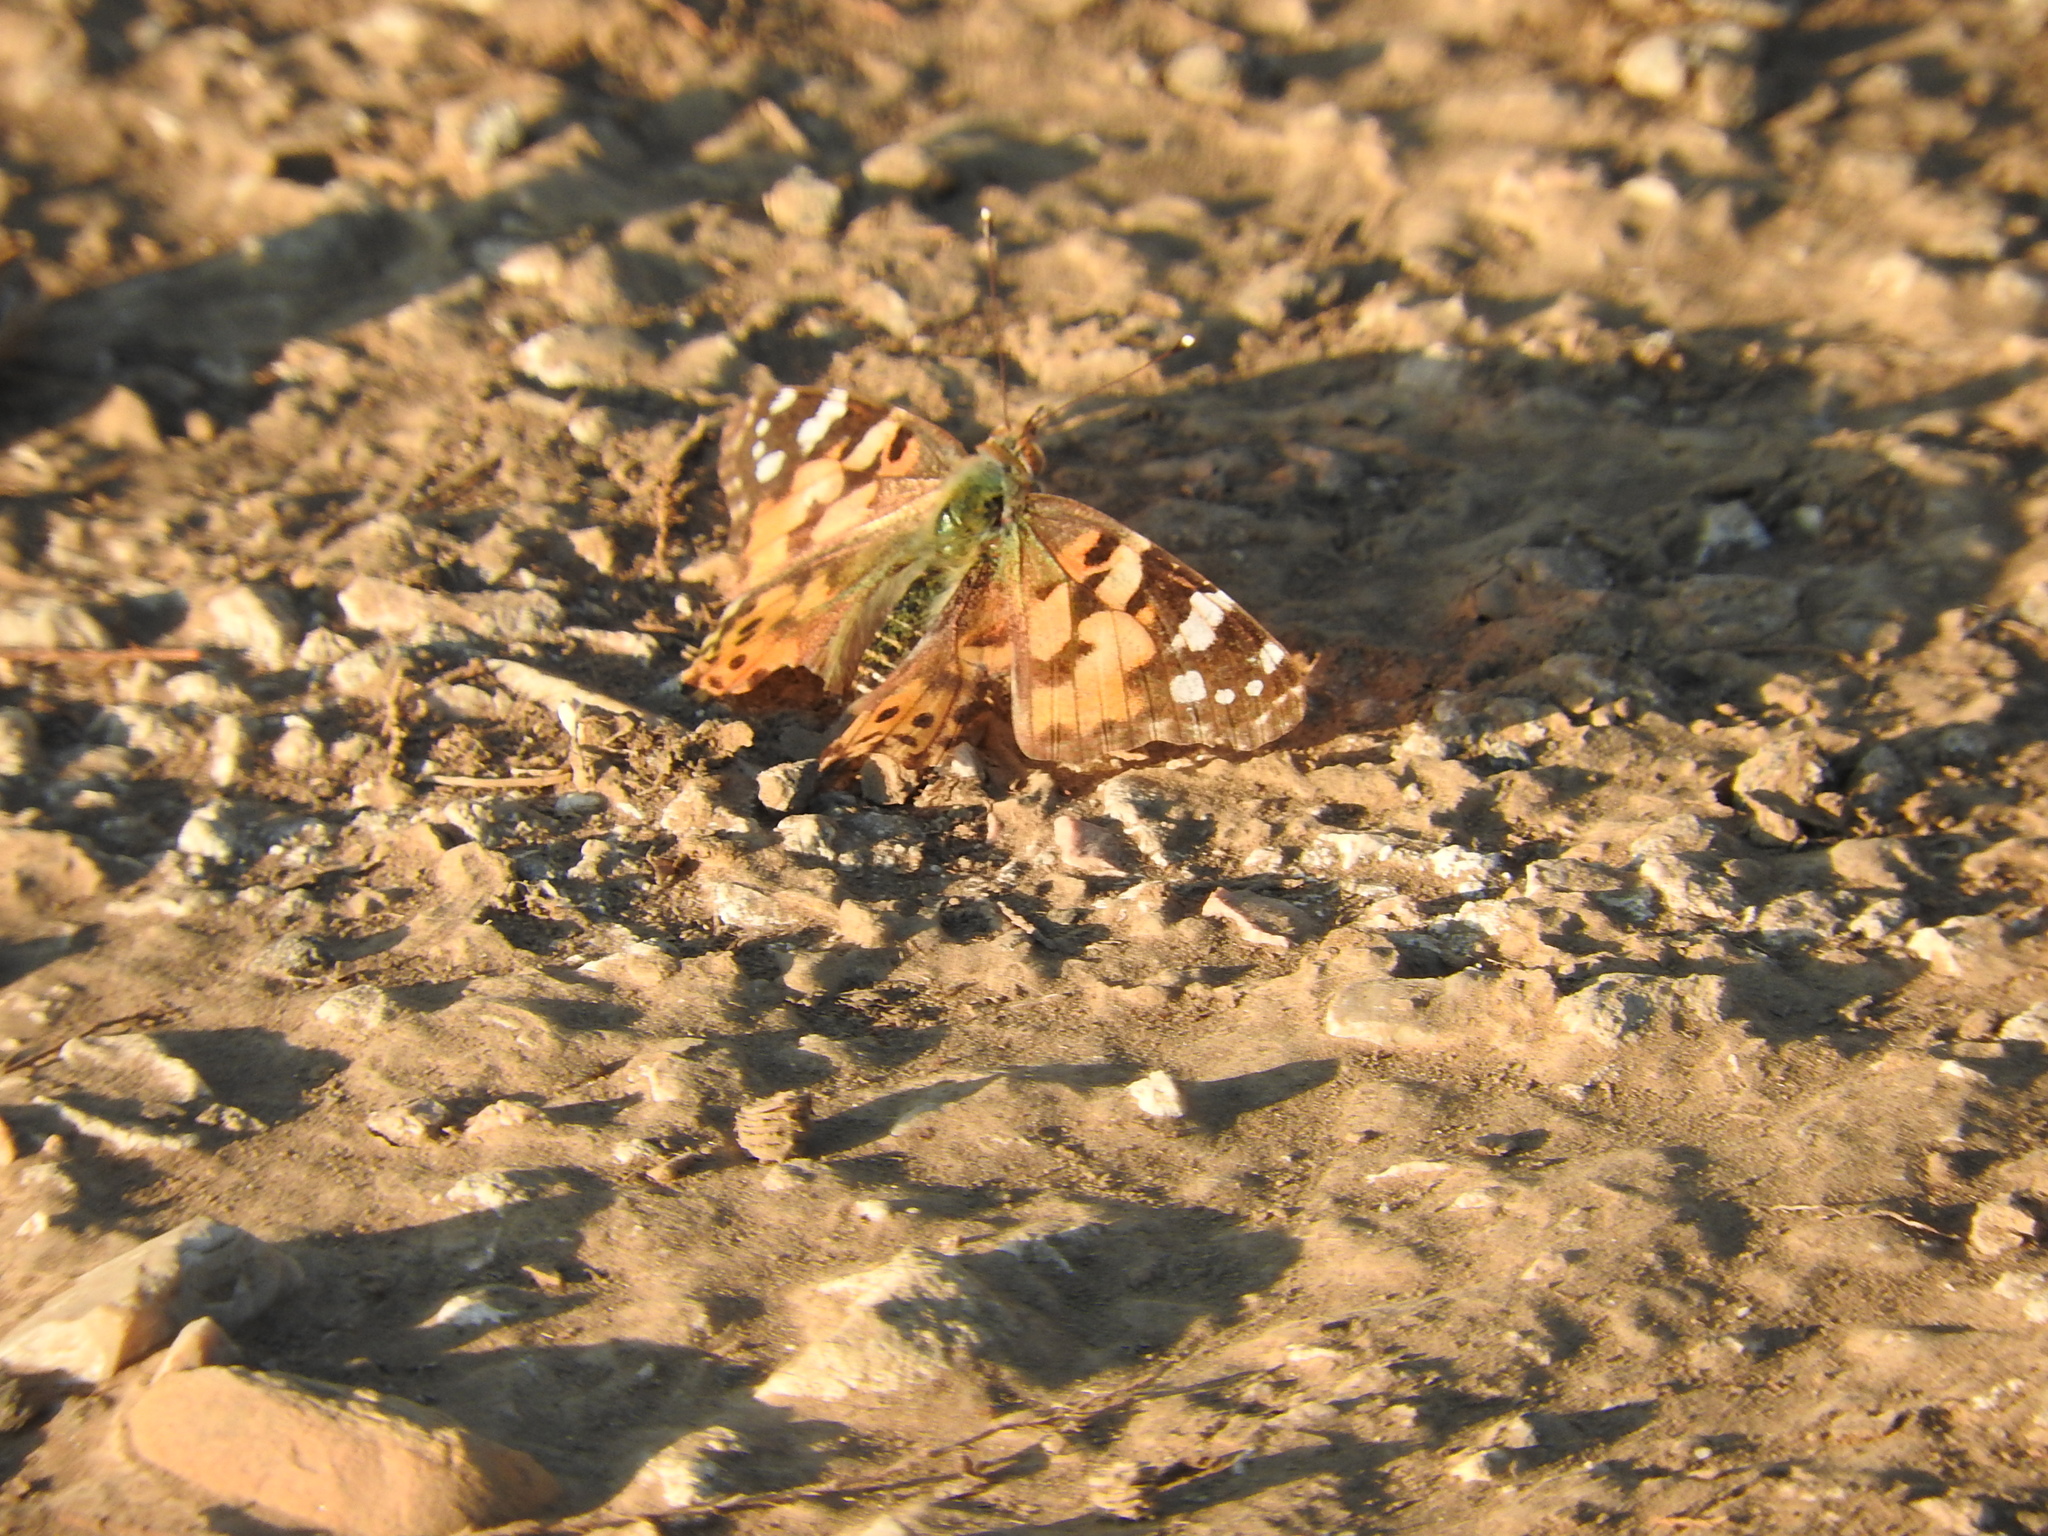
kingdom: Animalia
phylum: Arthropoda
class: Insecta
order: Lepidoptera
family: Nymphalidae
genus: Vanessa
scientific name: Vanessa cardui
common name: Painted lady
